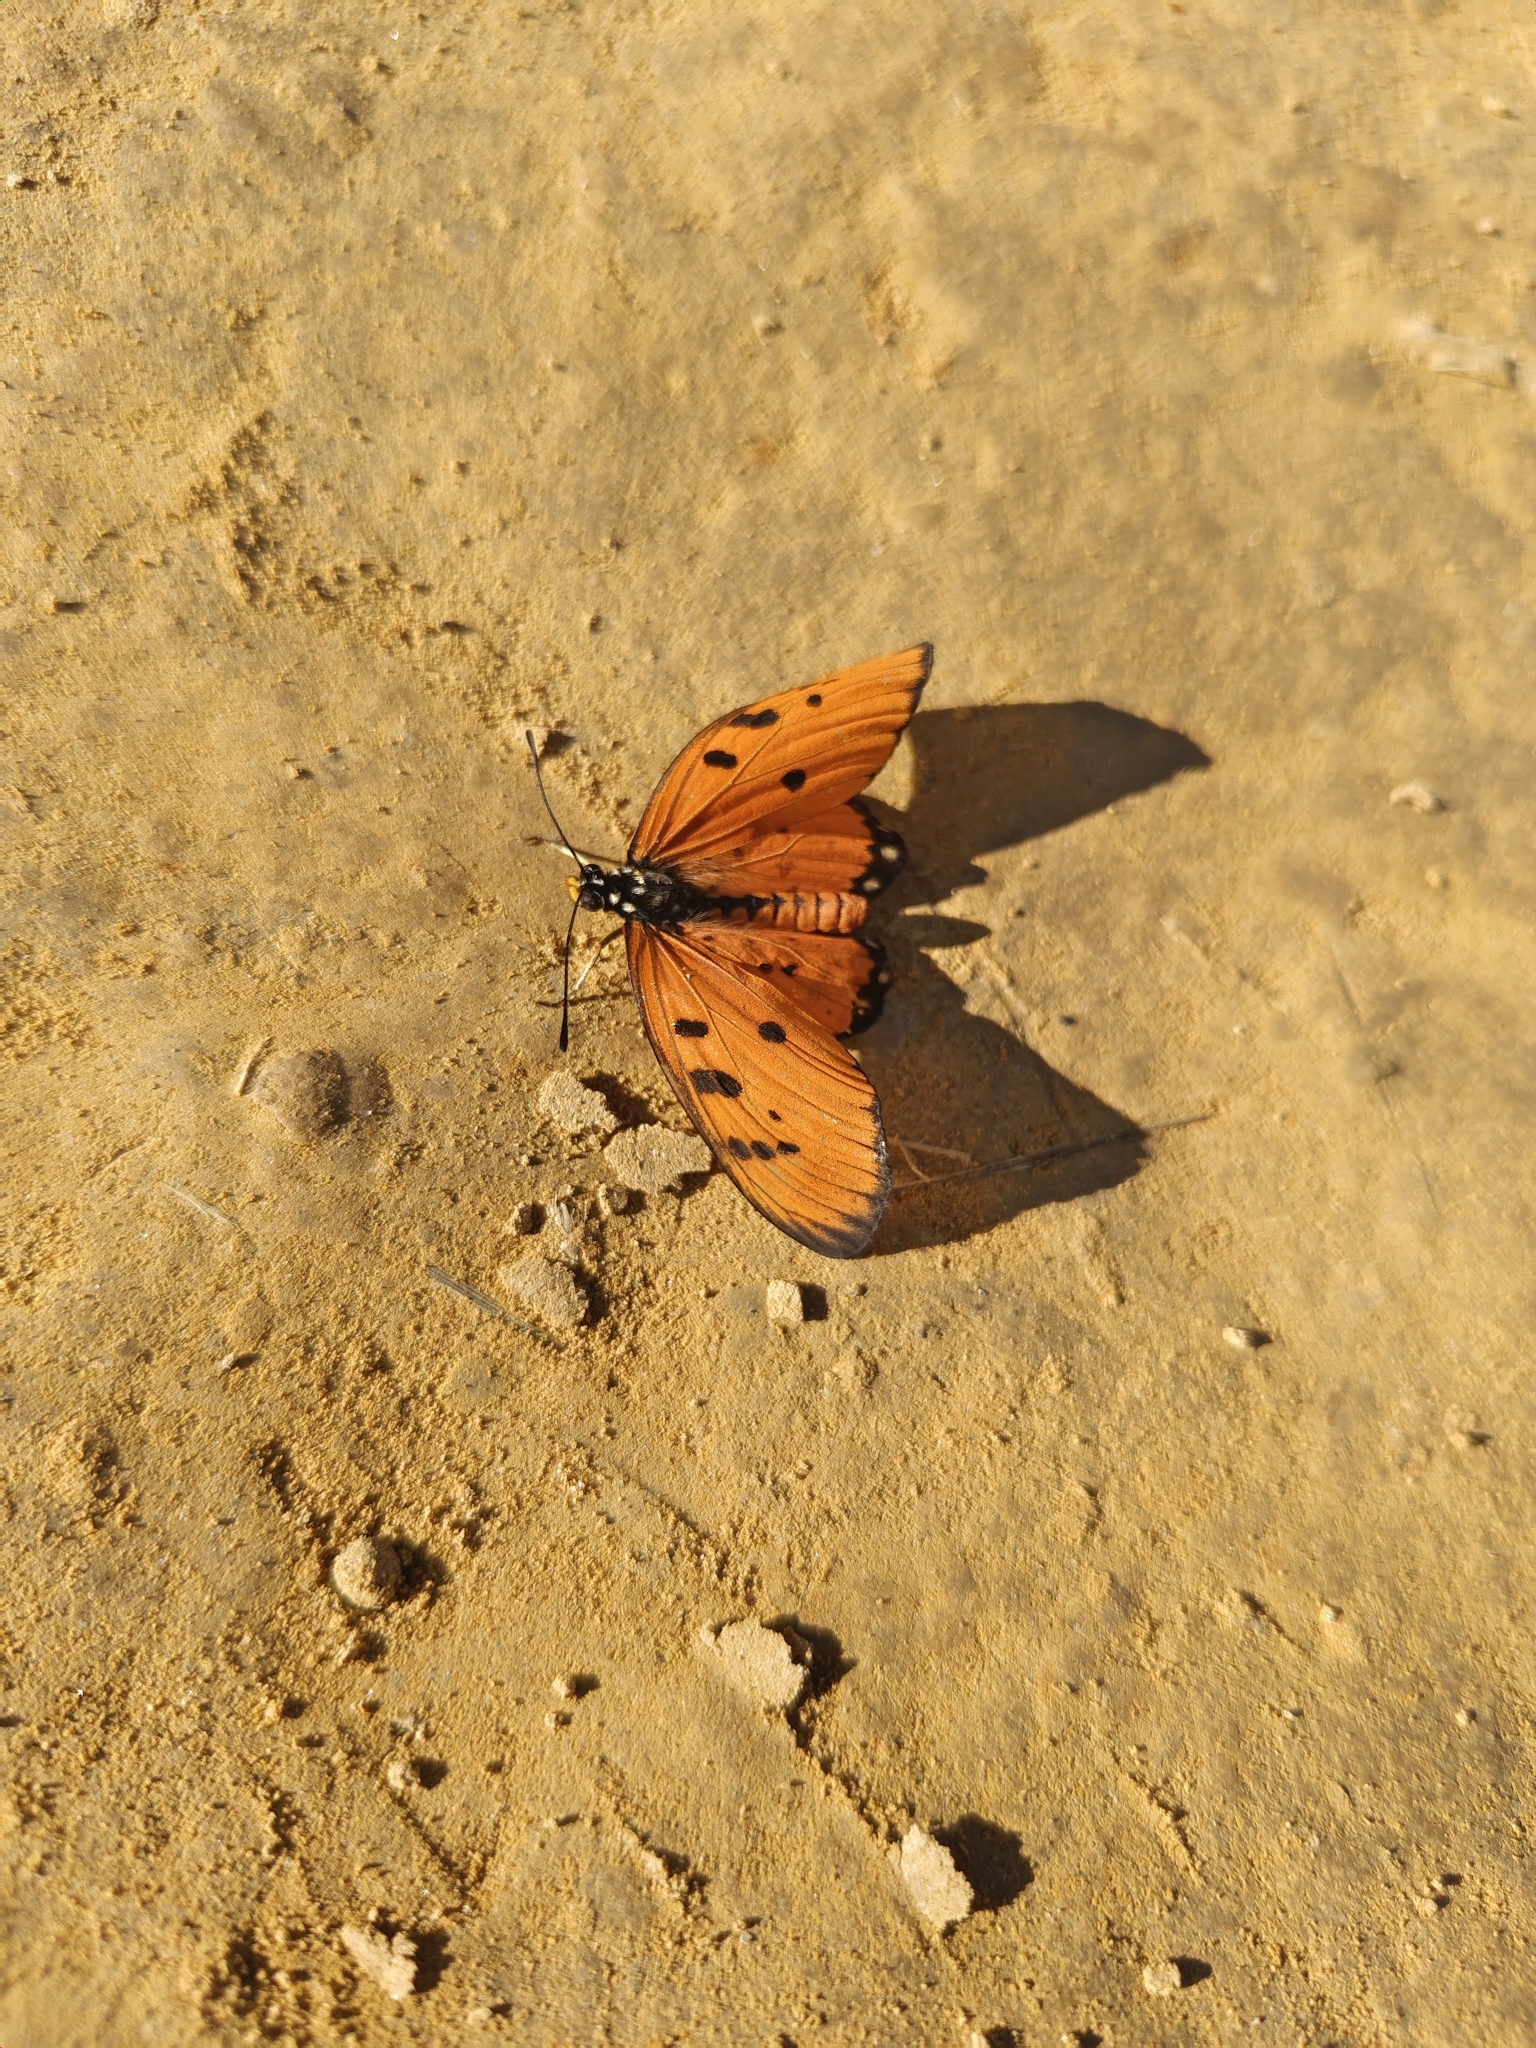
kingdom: Animalia
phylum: Arthropoda
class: Insecta
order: Lepidoptera
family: Nymphalidae
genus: Acraea
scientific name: Acraea terpsicore
